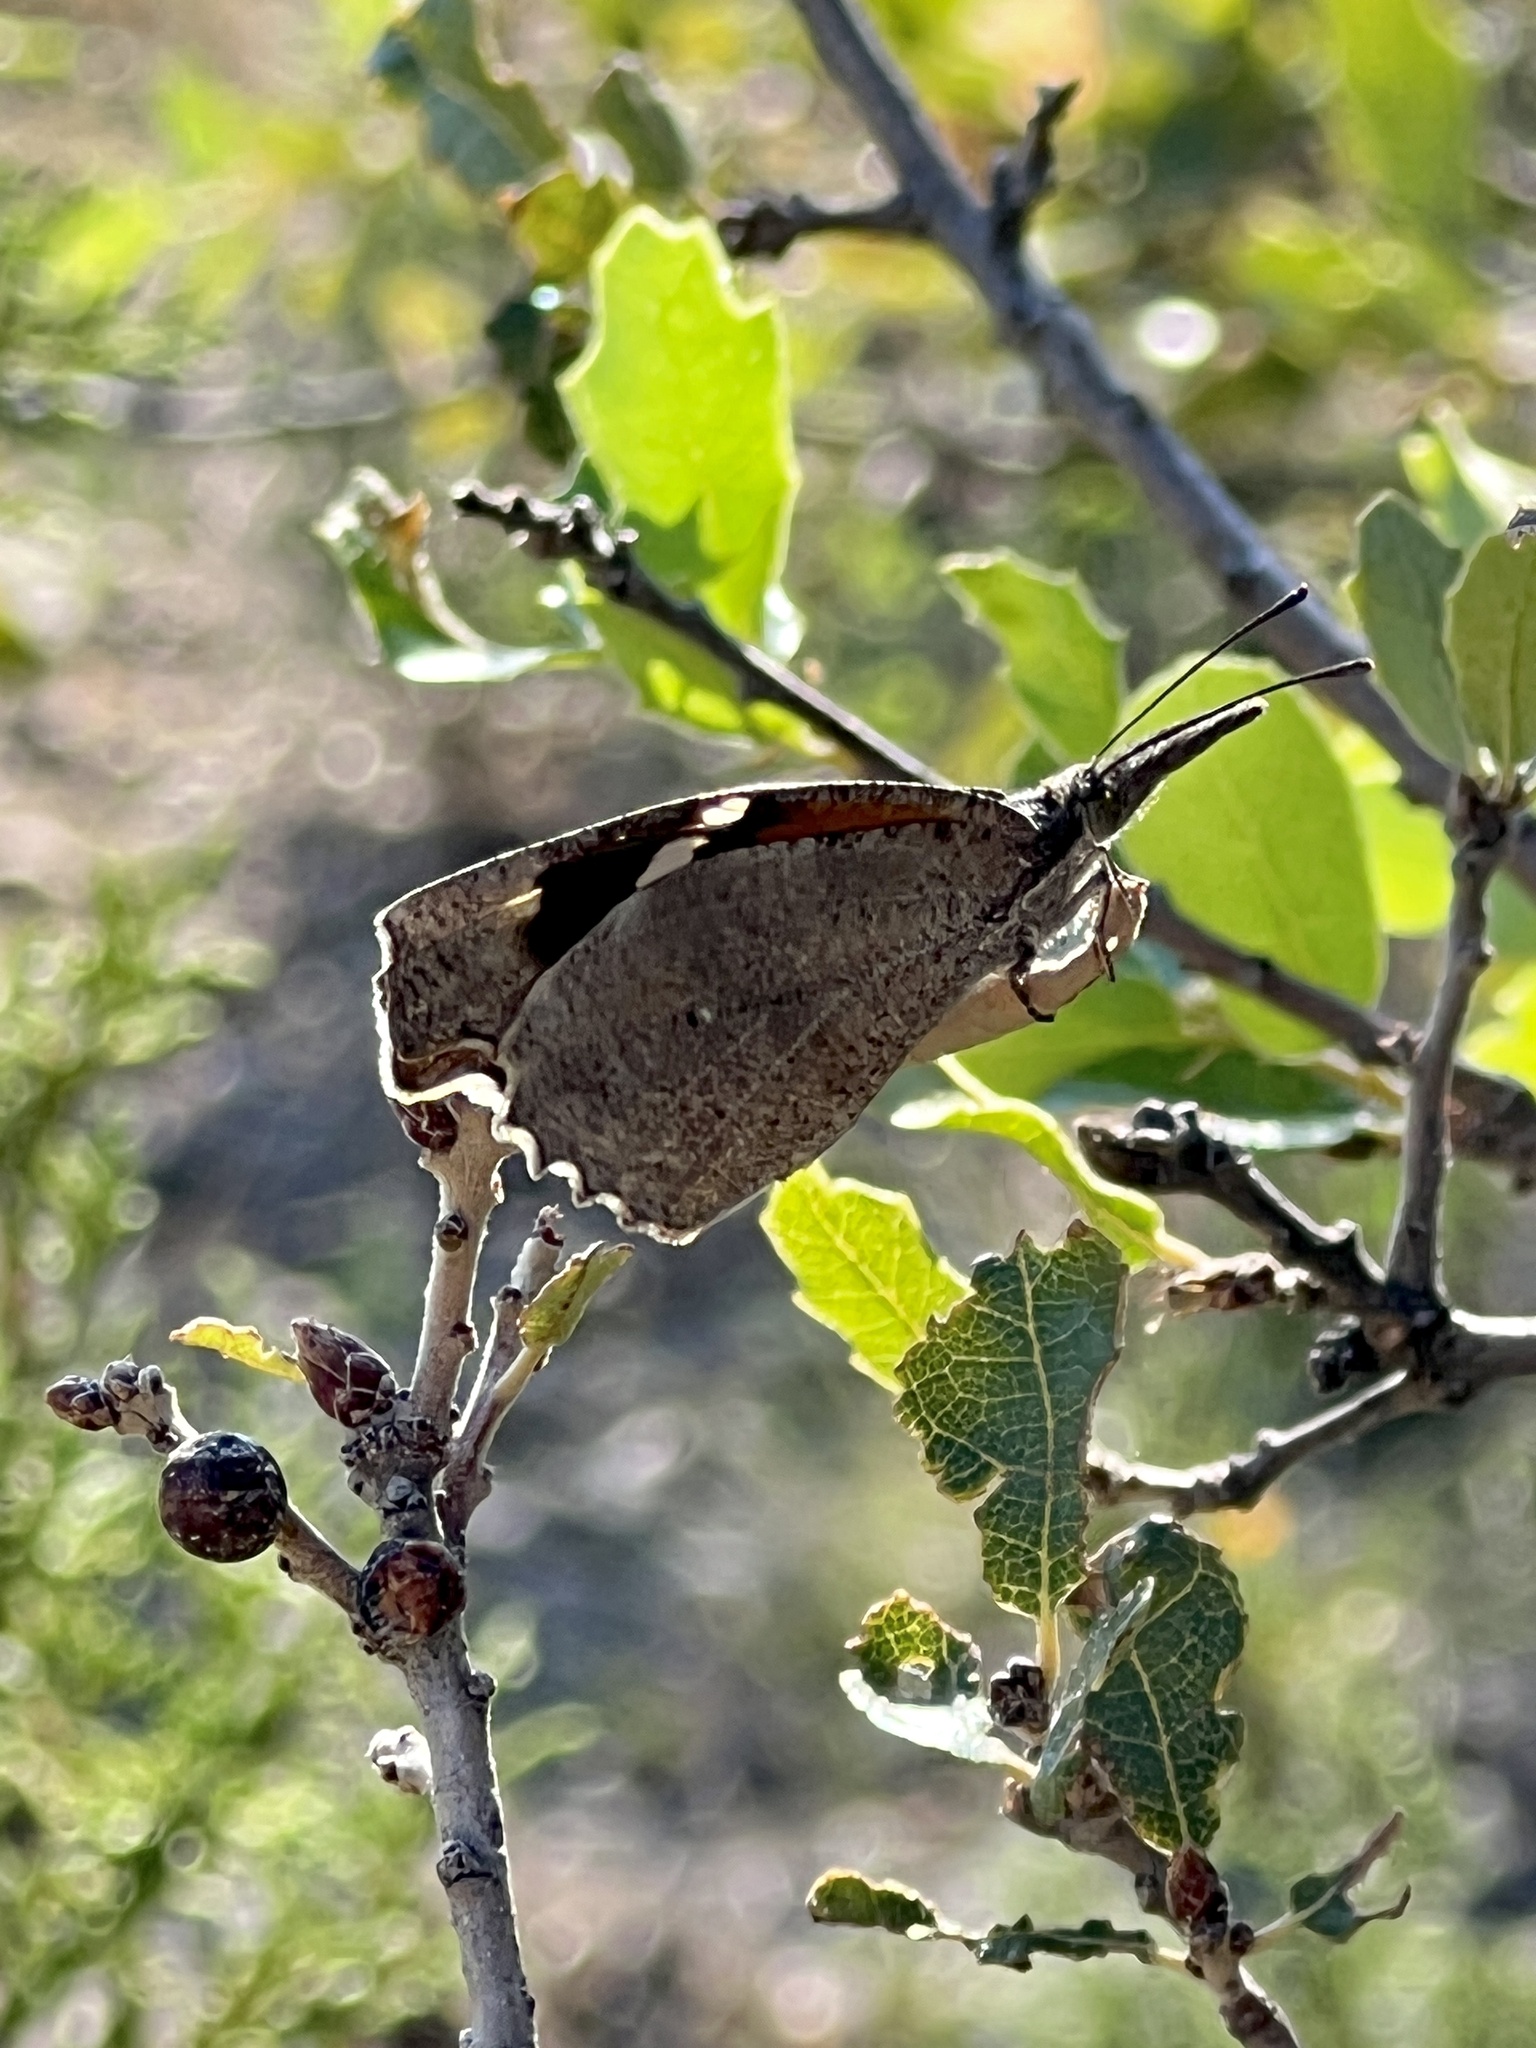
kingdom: Animalia
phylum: Arthropoda
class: Insecta
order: Lepidoptera
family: Nymphalidae
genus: Libytheana
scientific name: Libytheana carinenta
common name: American snout
